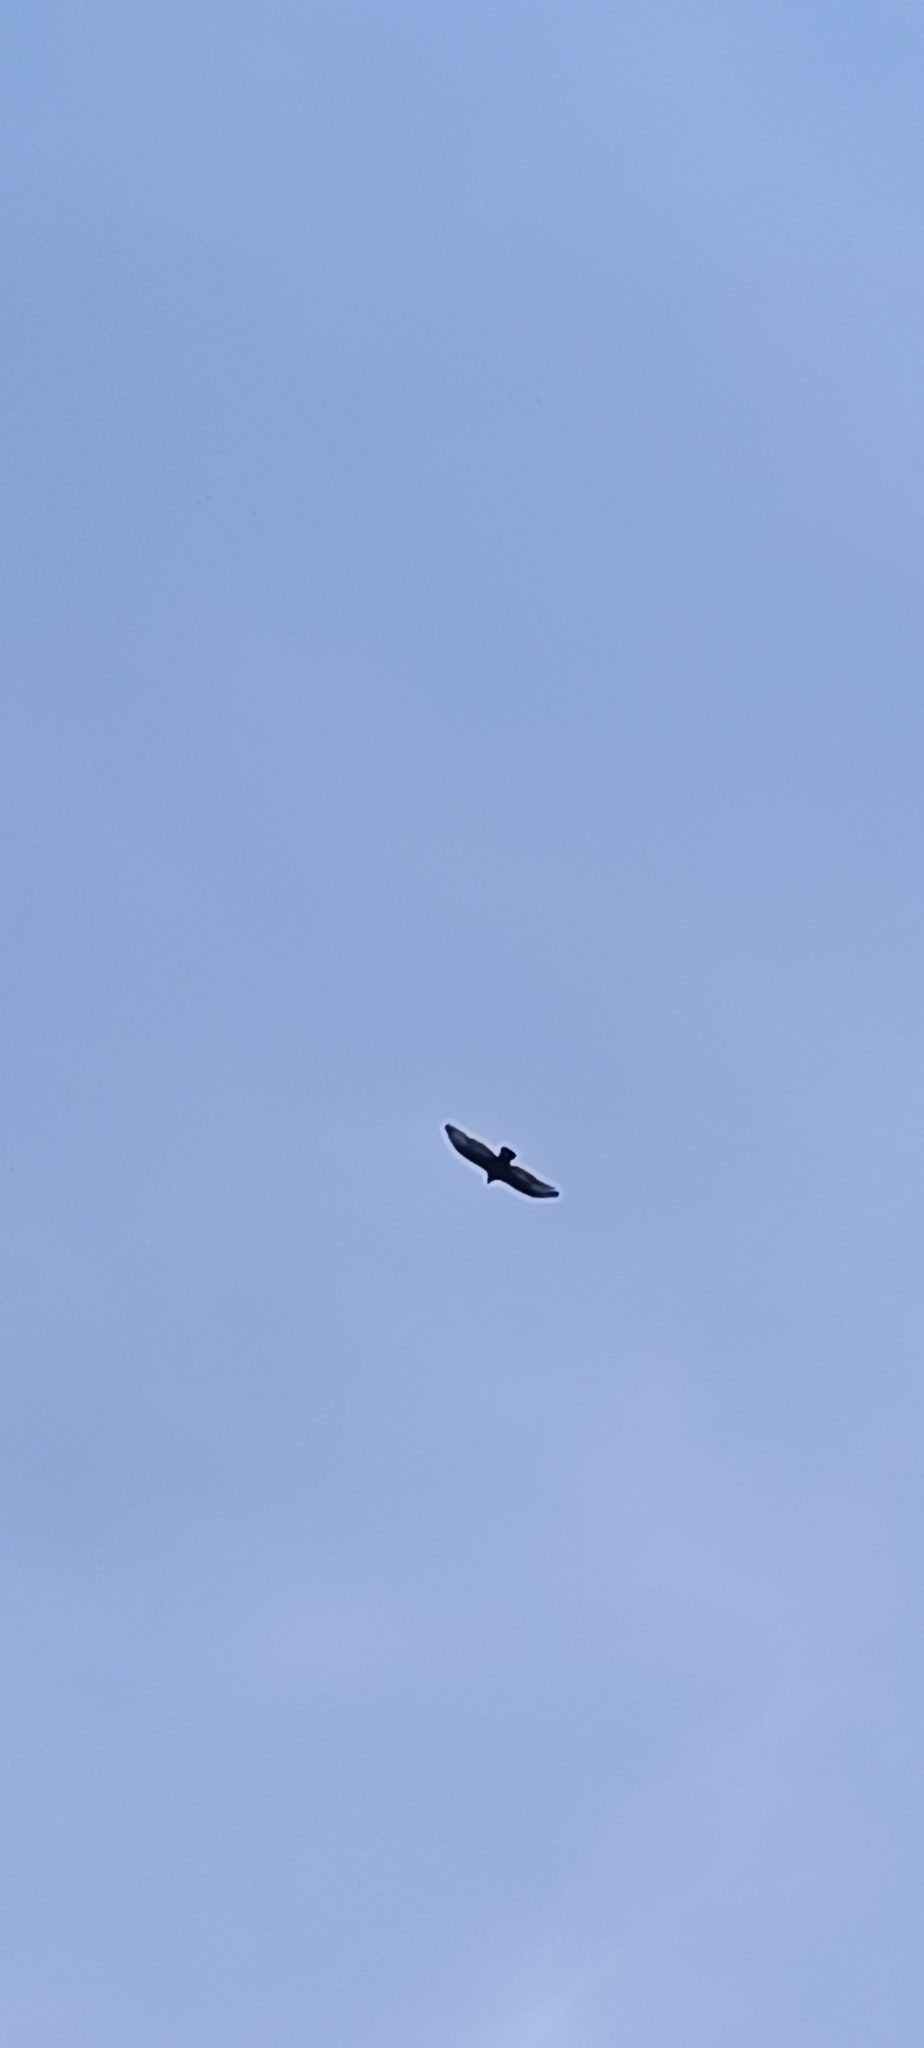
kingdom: Animalia
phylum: Chordata
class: Aves
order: Accipitriformes
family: Cathartidae
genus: Cathartes
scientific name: Cathartes aura
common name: Turkey vulture
